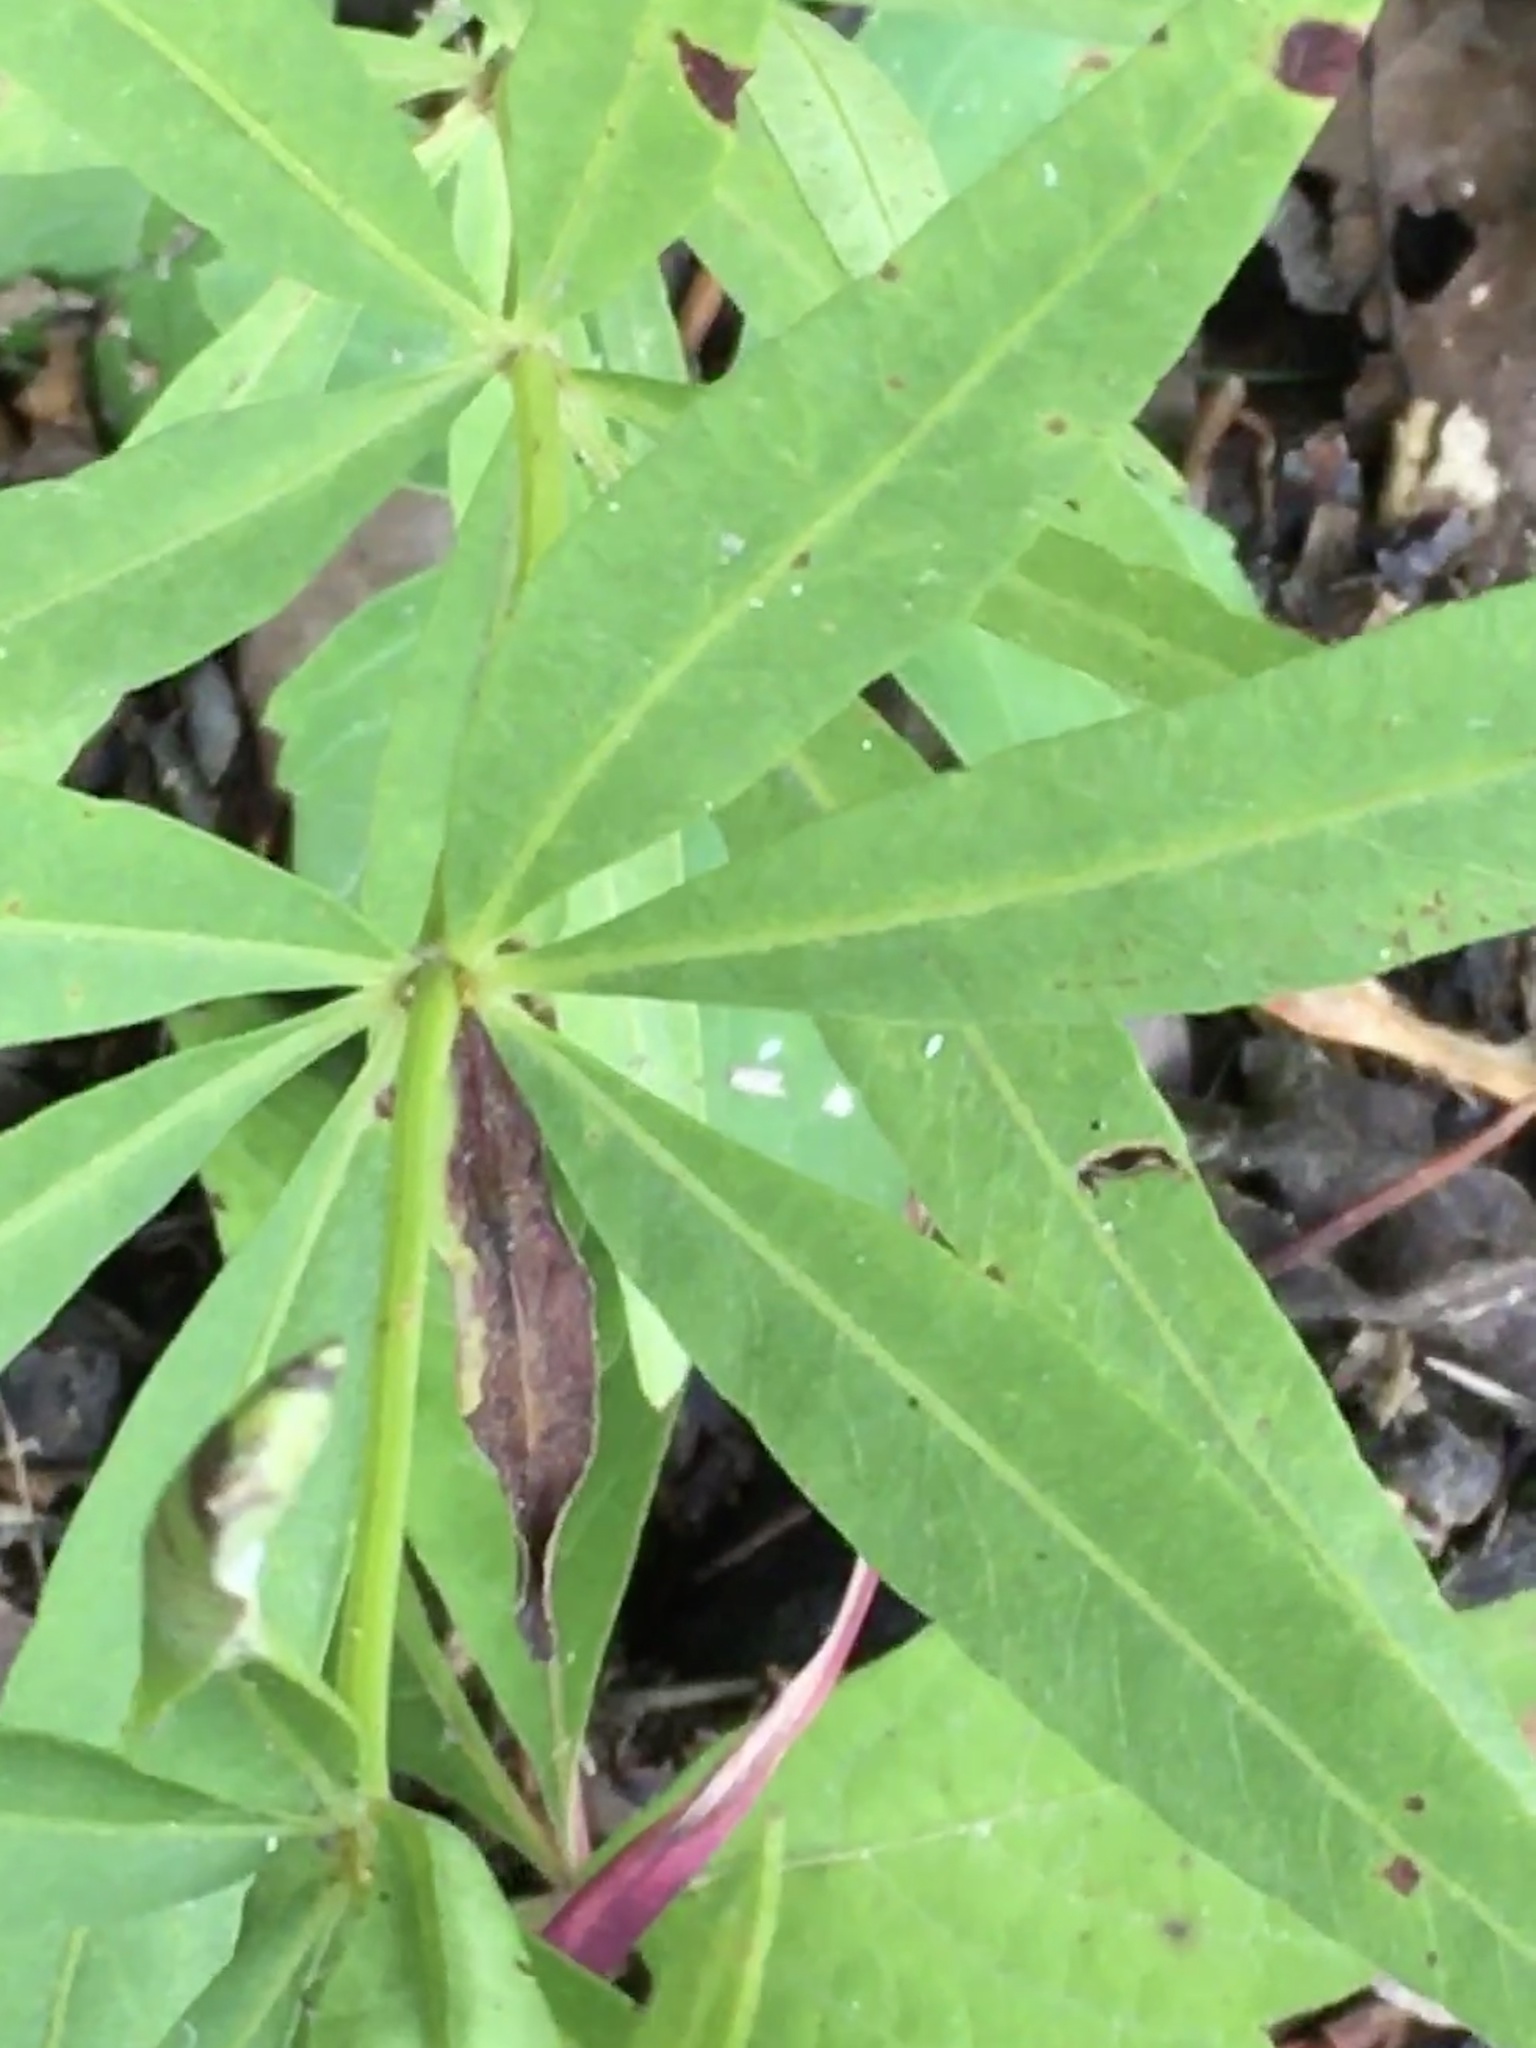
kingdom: Plantae
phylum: Tracheophyta
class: Magnoliopsida
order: Asterales
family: Asteraceae
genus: Coreopsis
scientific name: Coreopsis major
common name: Forest tickseed
